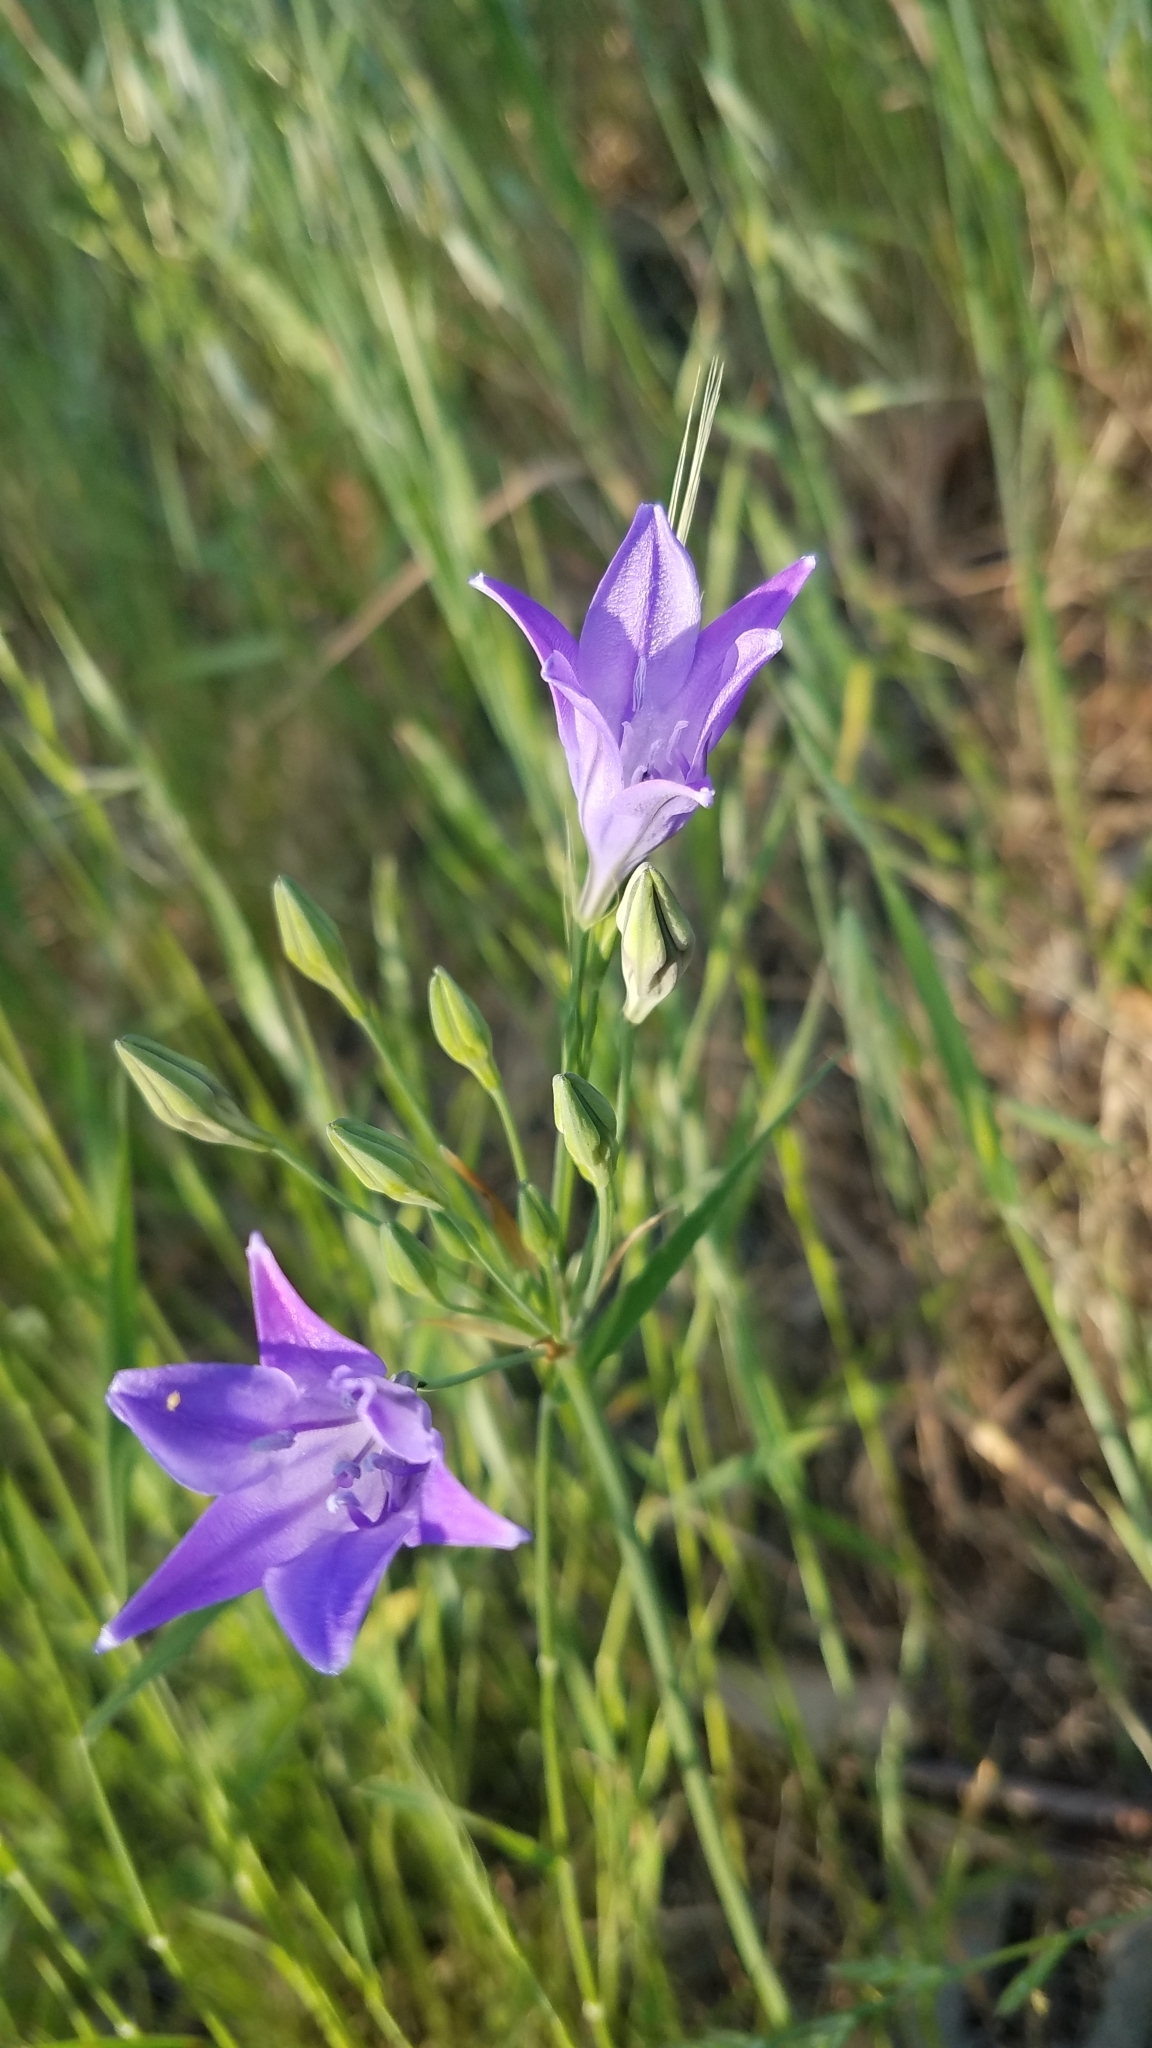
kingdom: Plantae
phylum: Tracheophyta
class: Liliopsida
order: Asparagales
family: Asparagaceae
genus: Triteleia
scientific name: Triteleia laxa
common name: Triplet-lily
